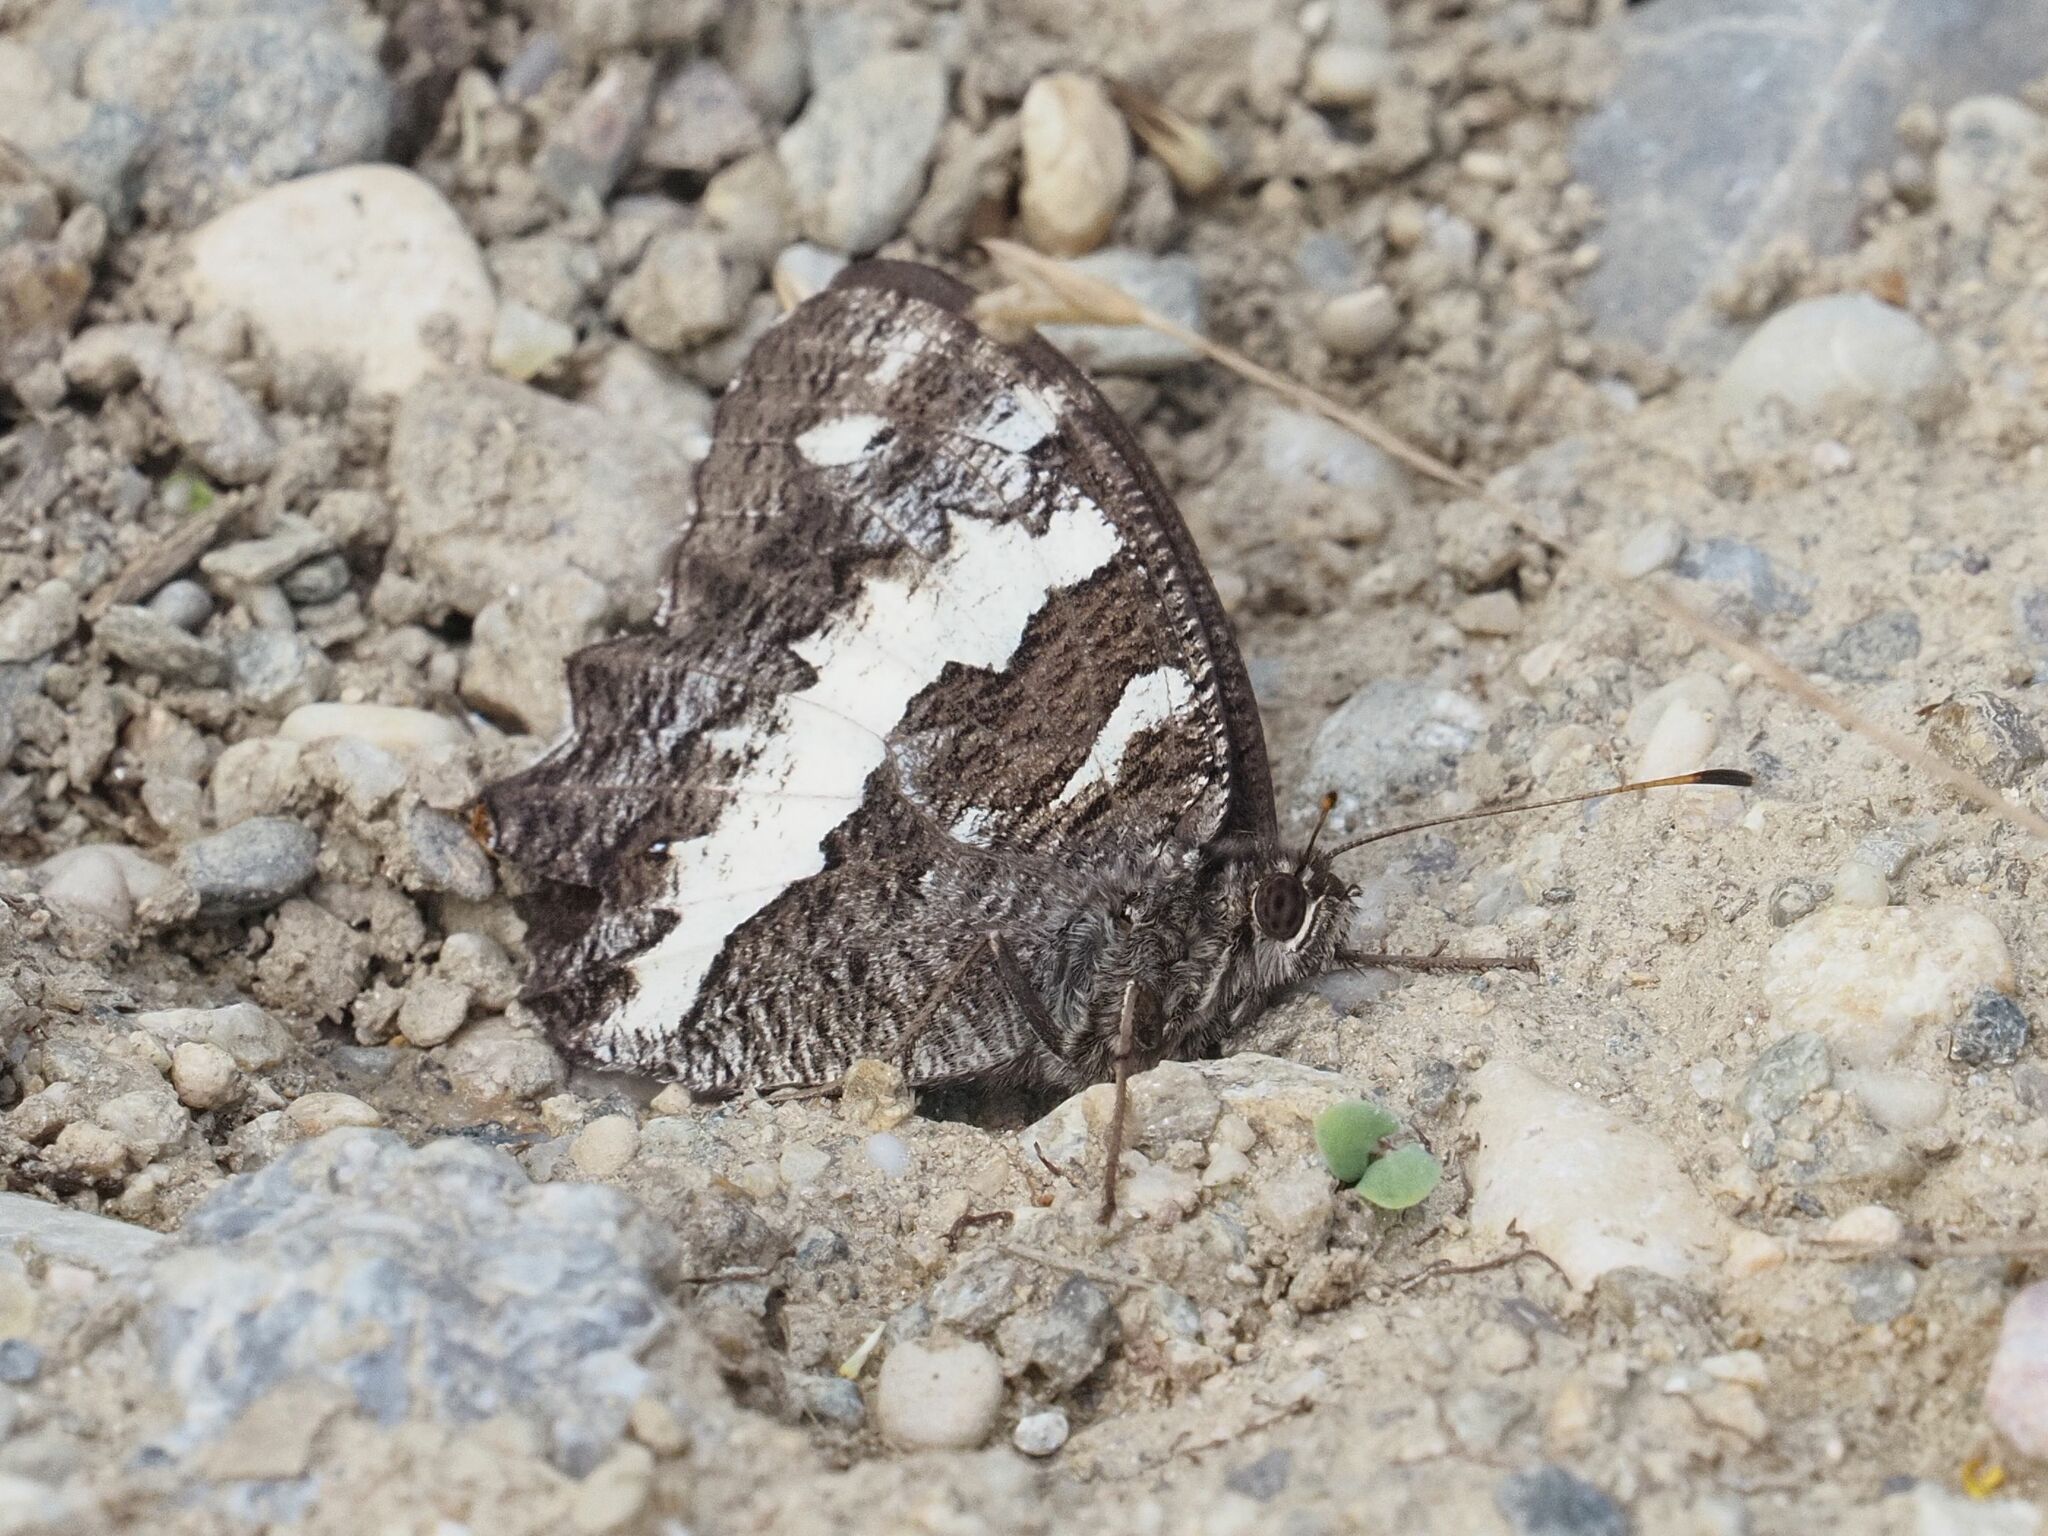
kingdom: Animalia
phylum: Arthropoda
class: Insecta
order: Lepidoptera
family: Lycaenidae
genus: Loweia
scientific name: Loweia tityrus
